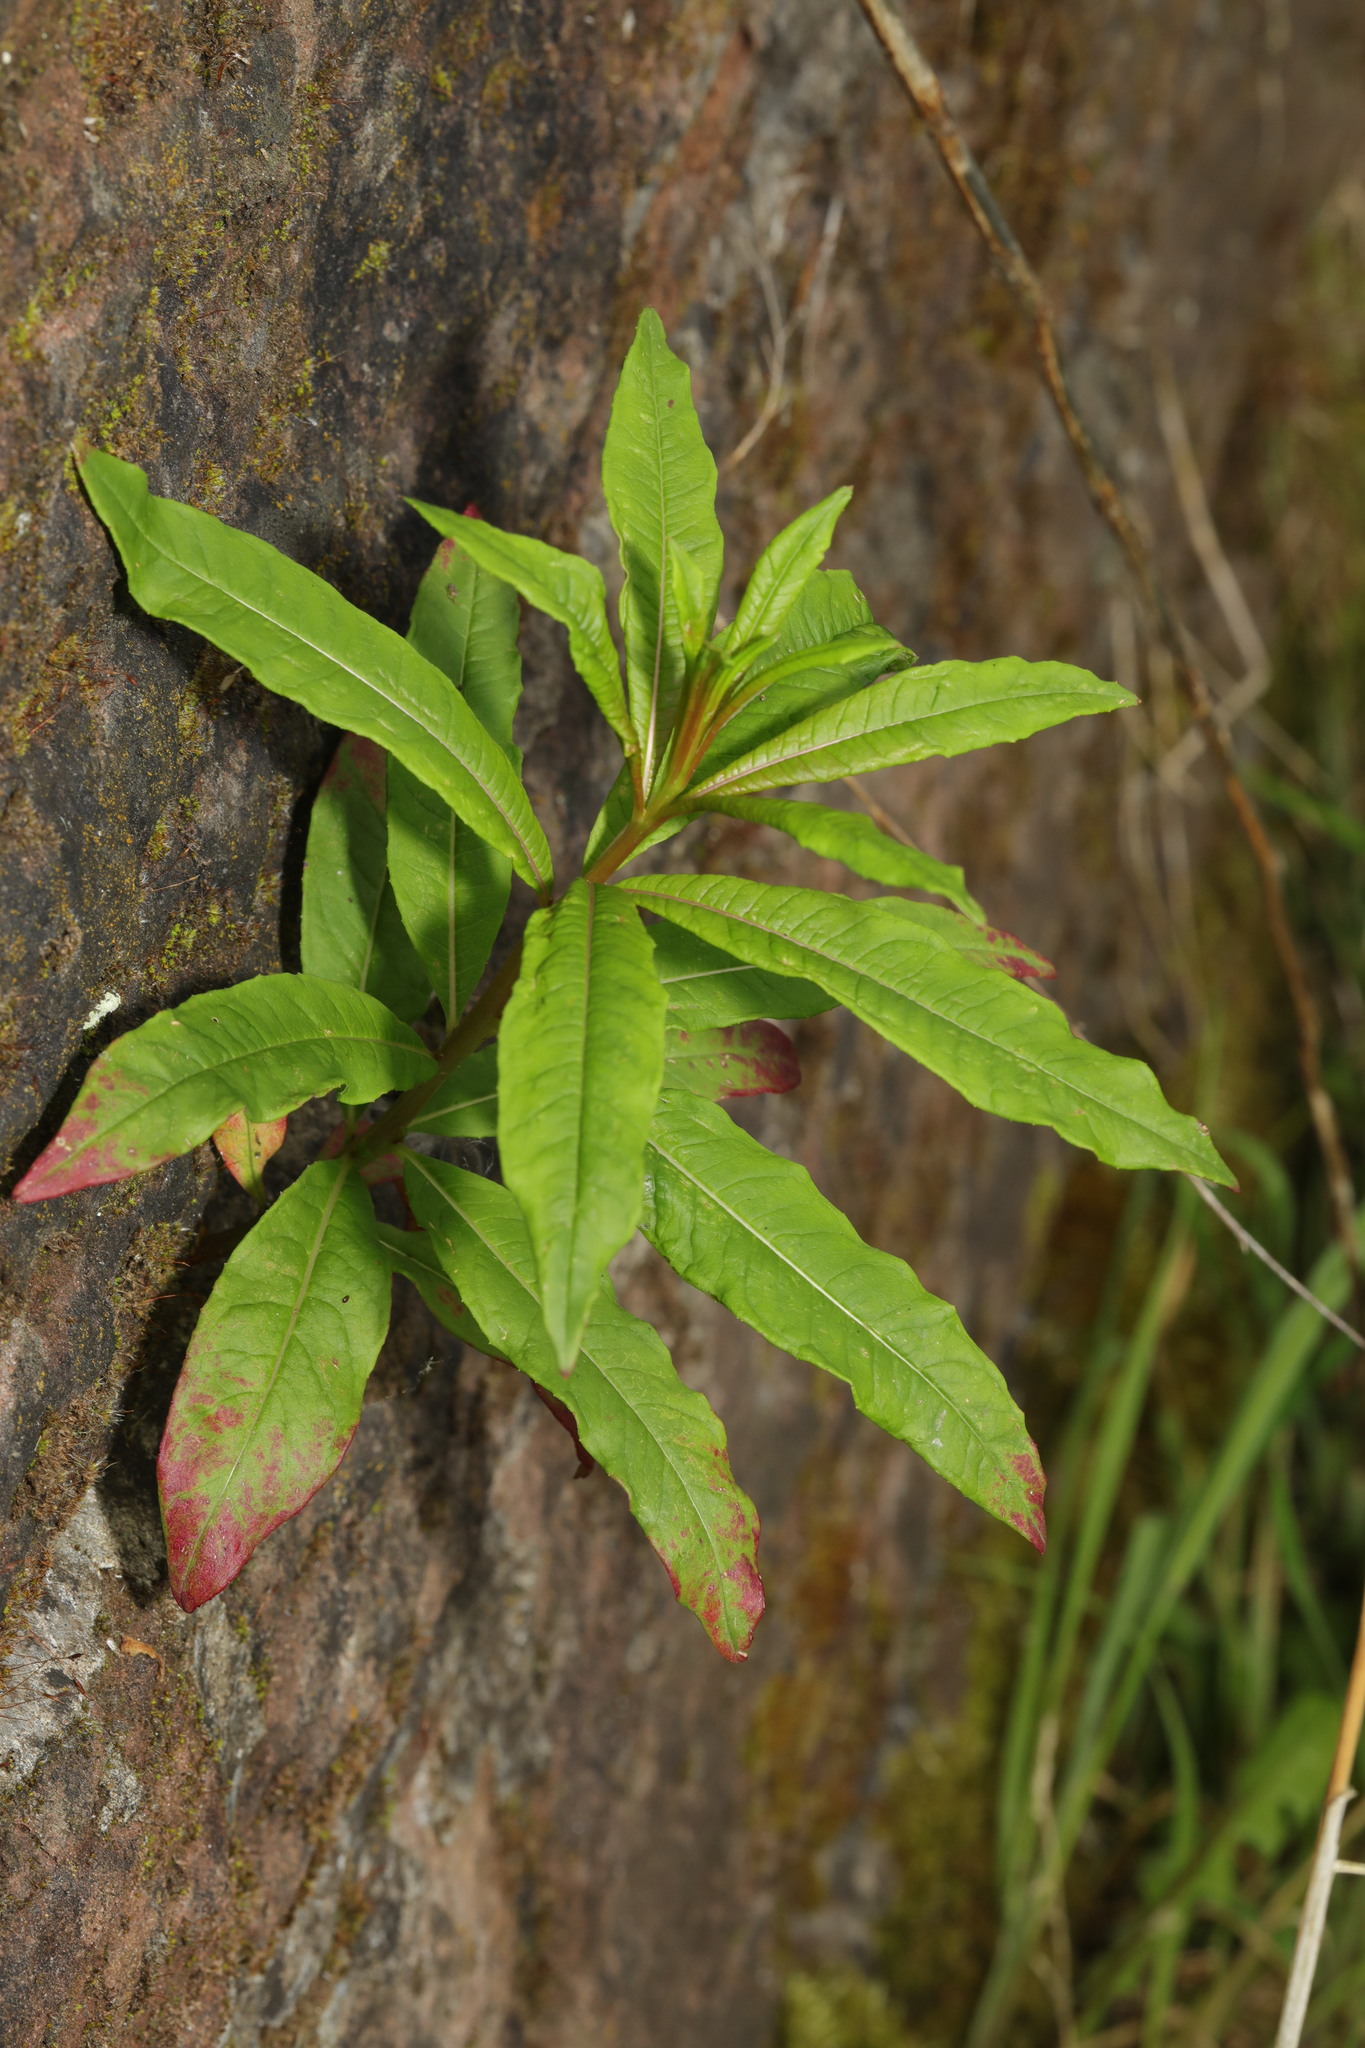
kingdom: Plantae
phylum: Tracheophyta
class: Magnoliopsida
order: Myrtales
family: Onagraceae
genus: Chamaenerion
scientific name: Chamaenerion angustifolium
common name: Fireweed
